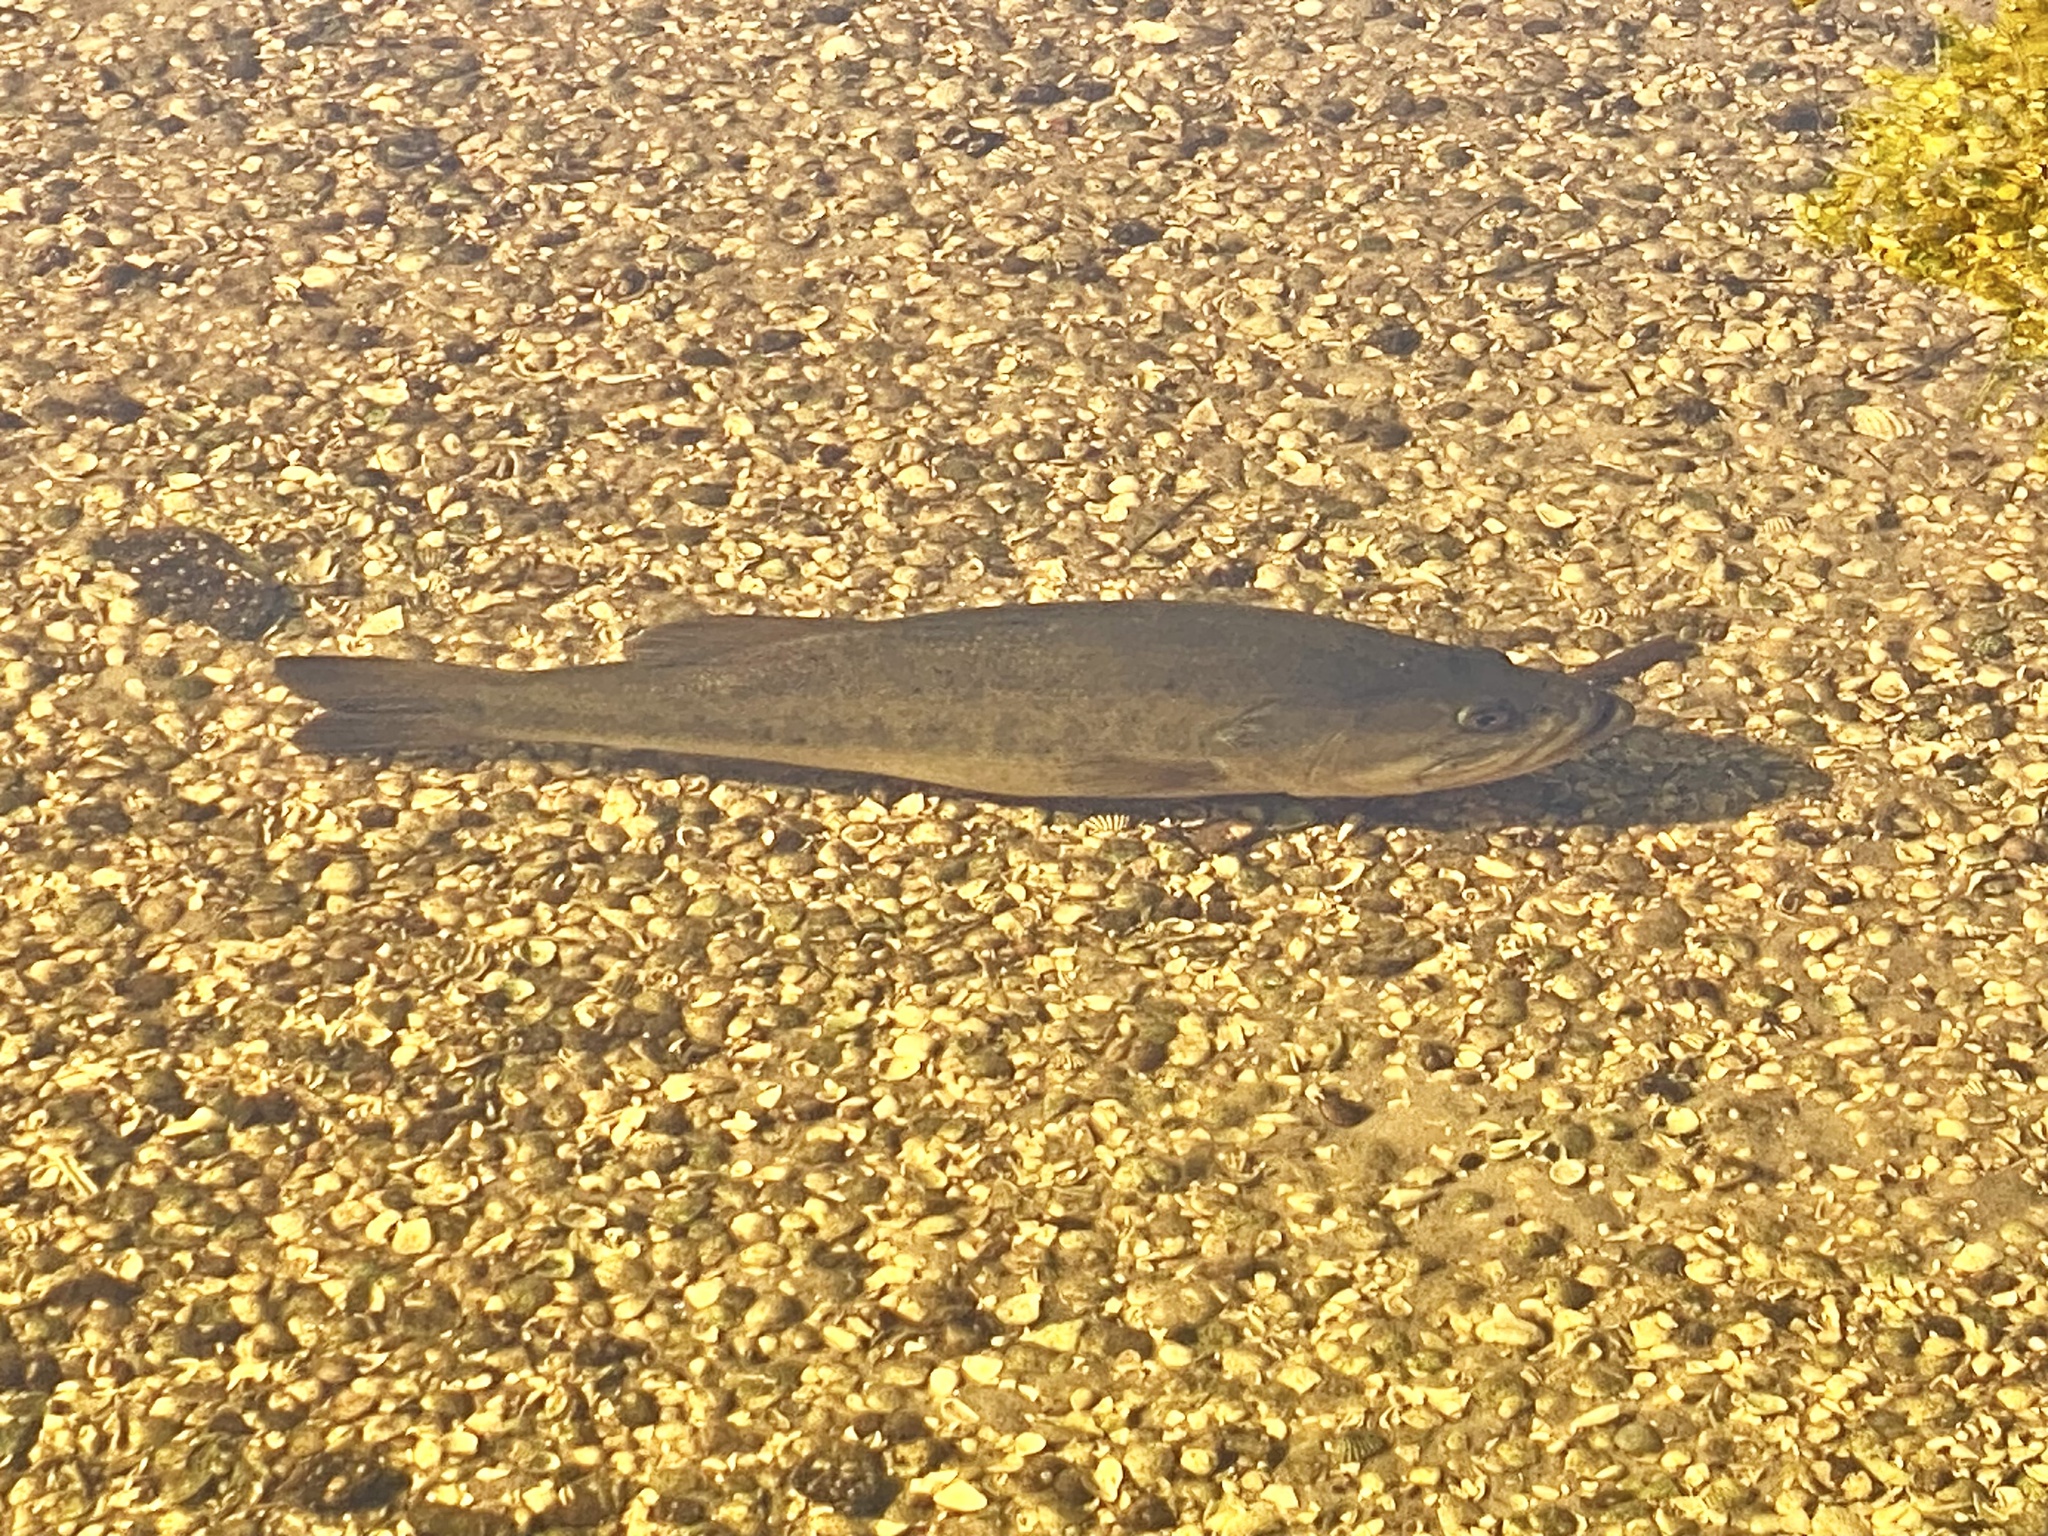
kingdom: Animalia
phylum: Chordata
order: Perciformes
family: Centrarchidae
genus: Micropterus
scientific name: Micropterus salmoides
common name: Largemouth bass
